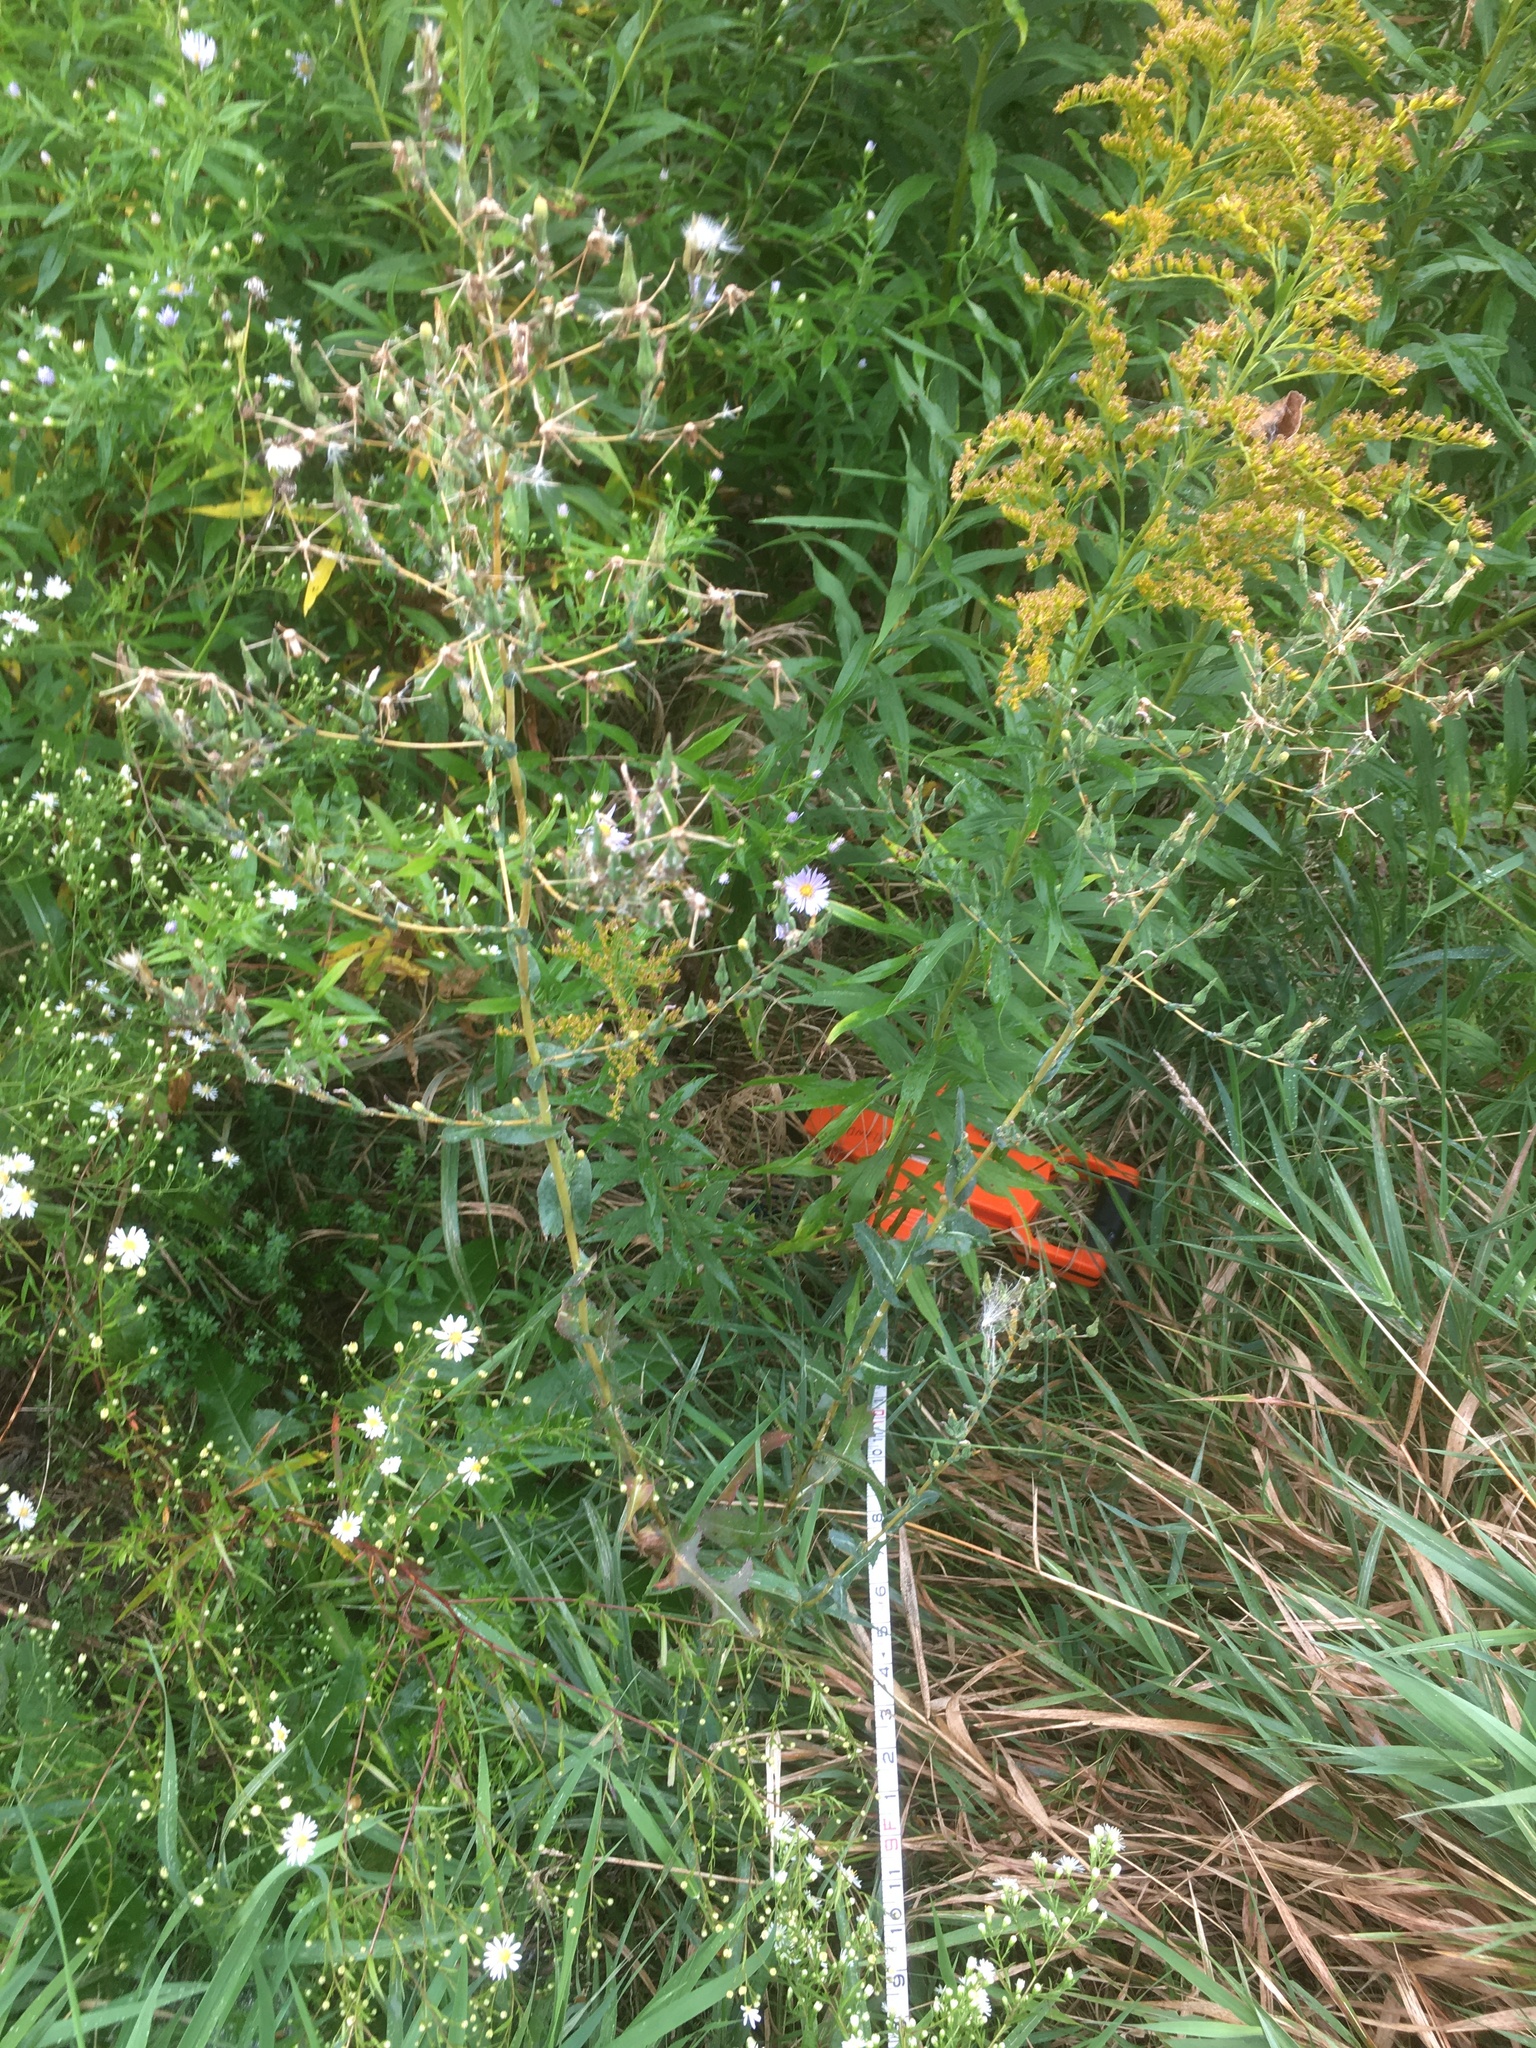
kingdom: Plantae
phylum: Tracheophyta
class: Magnoliopsida
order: Asterales
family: Asteraceae
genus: Lactuca
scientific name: Lactuca serriola
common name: Prickly lettuce
